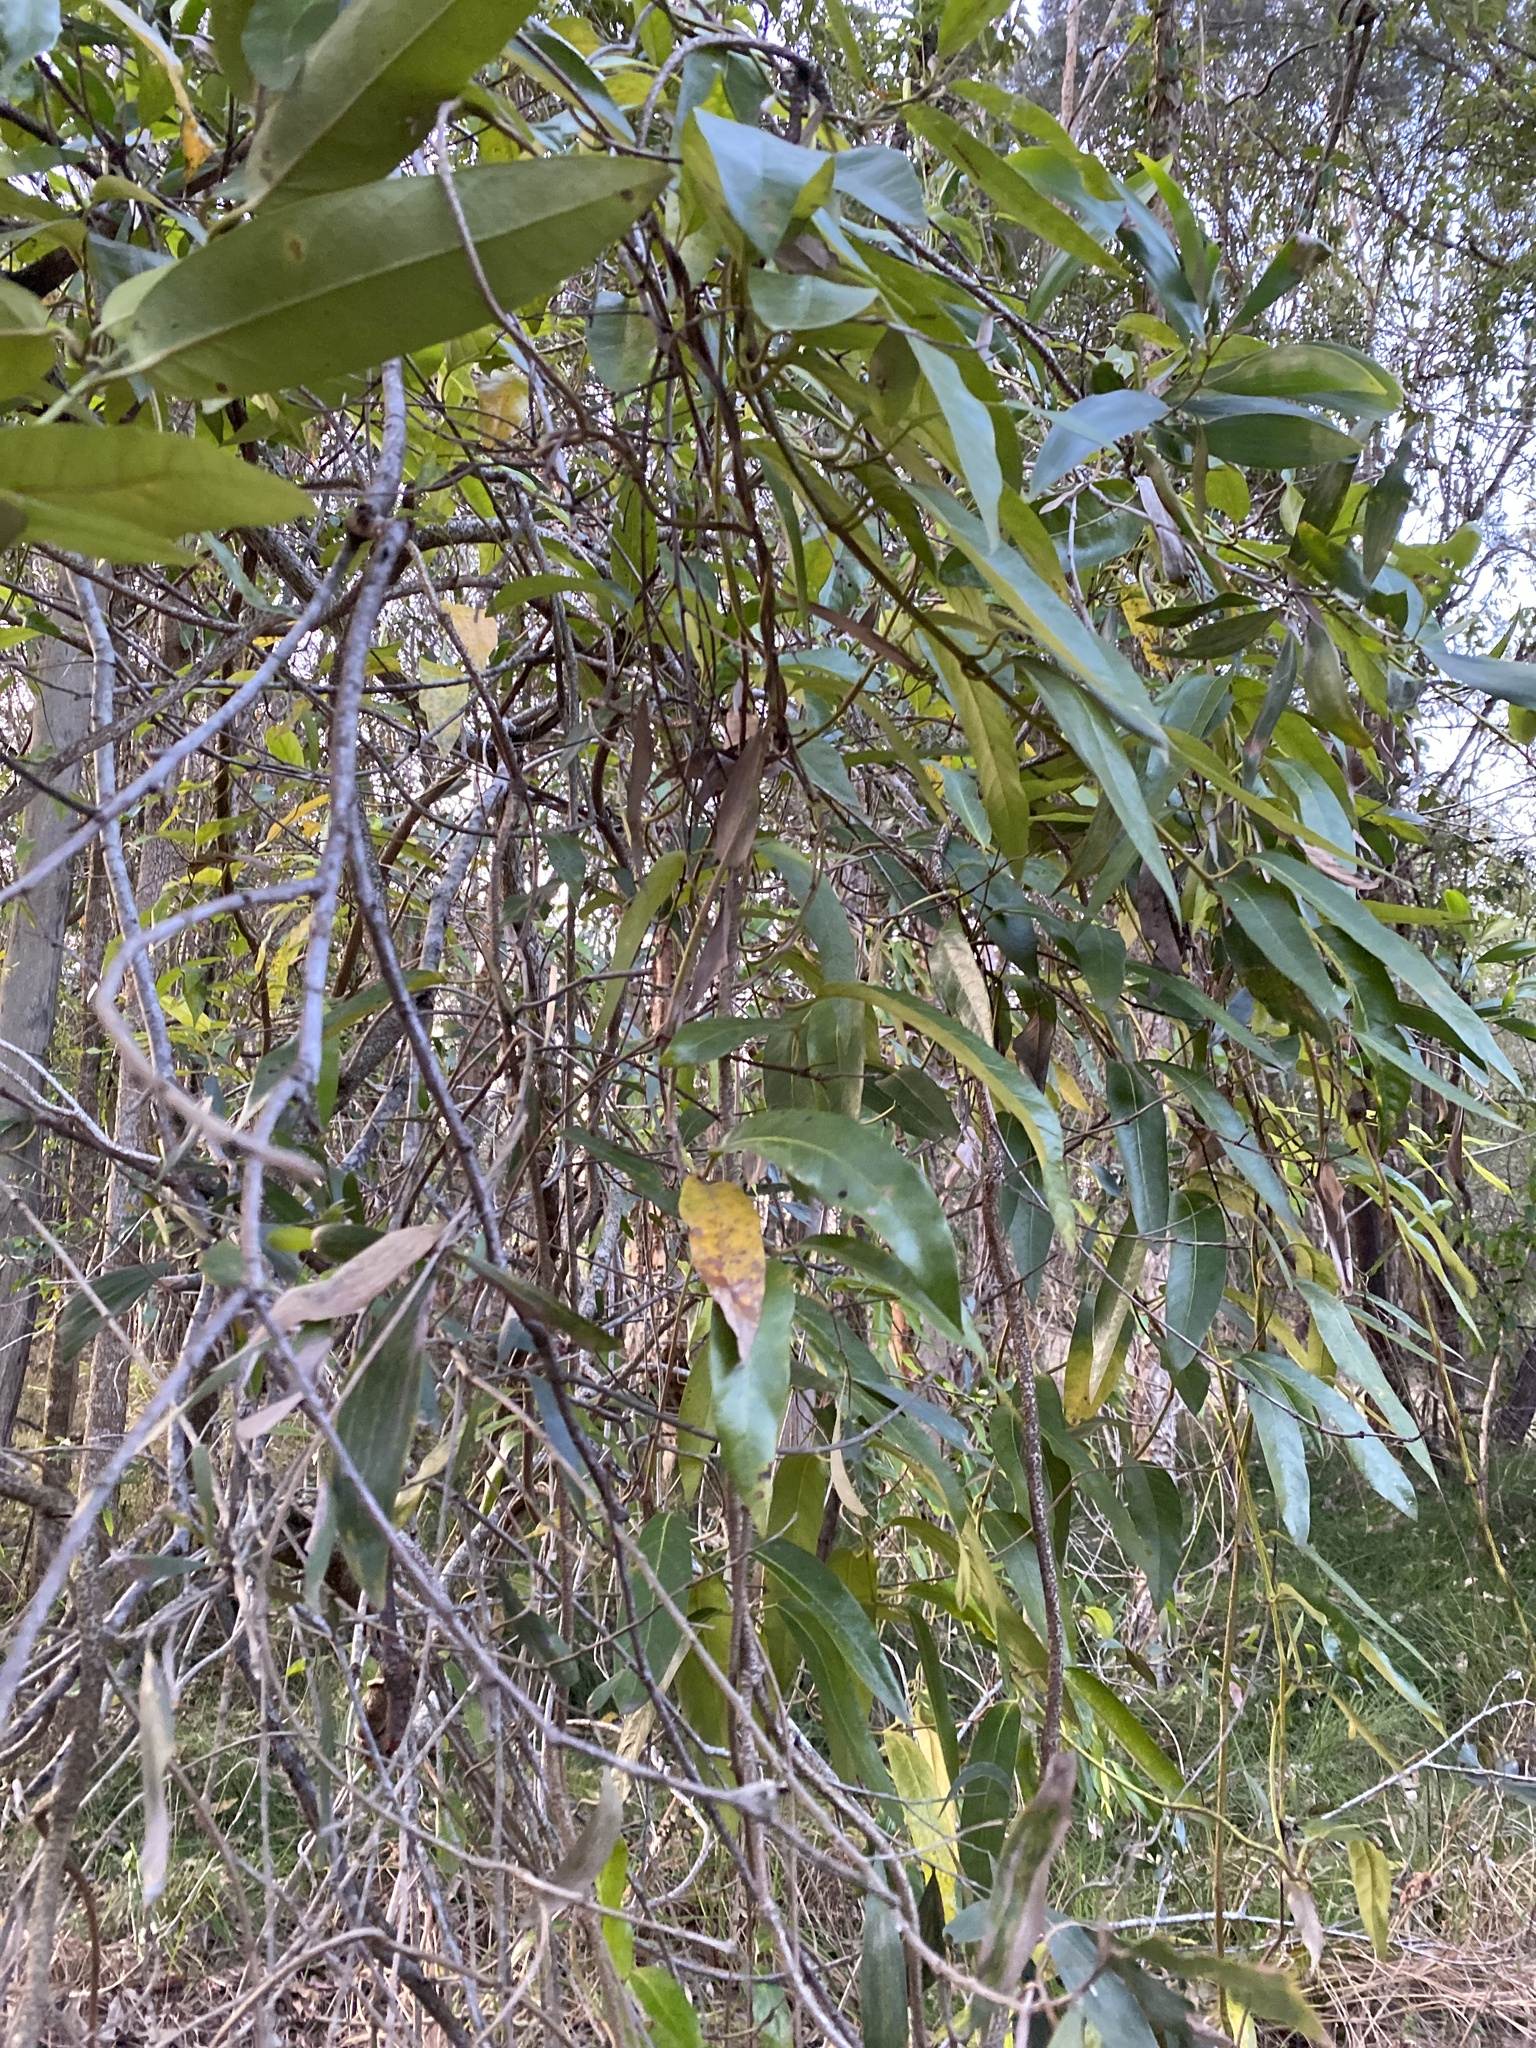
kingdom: Plantae
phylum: Tracheophyta
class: Magnoliopsida
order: Gentianales
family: Apocynaceae
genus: Parsonsia
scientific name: Parsonsia straminea
